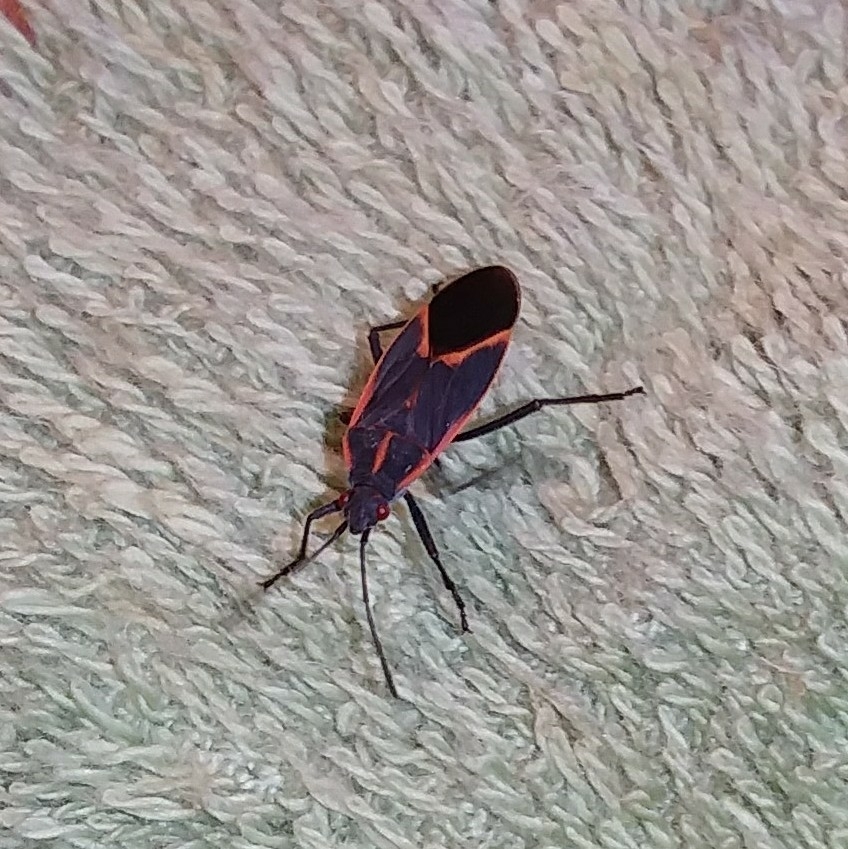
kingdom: Animalia
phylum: Arthropoda
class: Insecta
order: Hemiptera
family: Rhopalidae
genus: Boisea
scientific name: Boisea trivittata
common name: Boxelder bug
